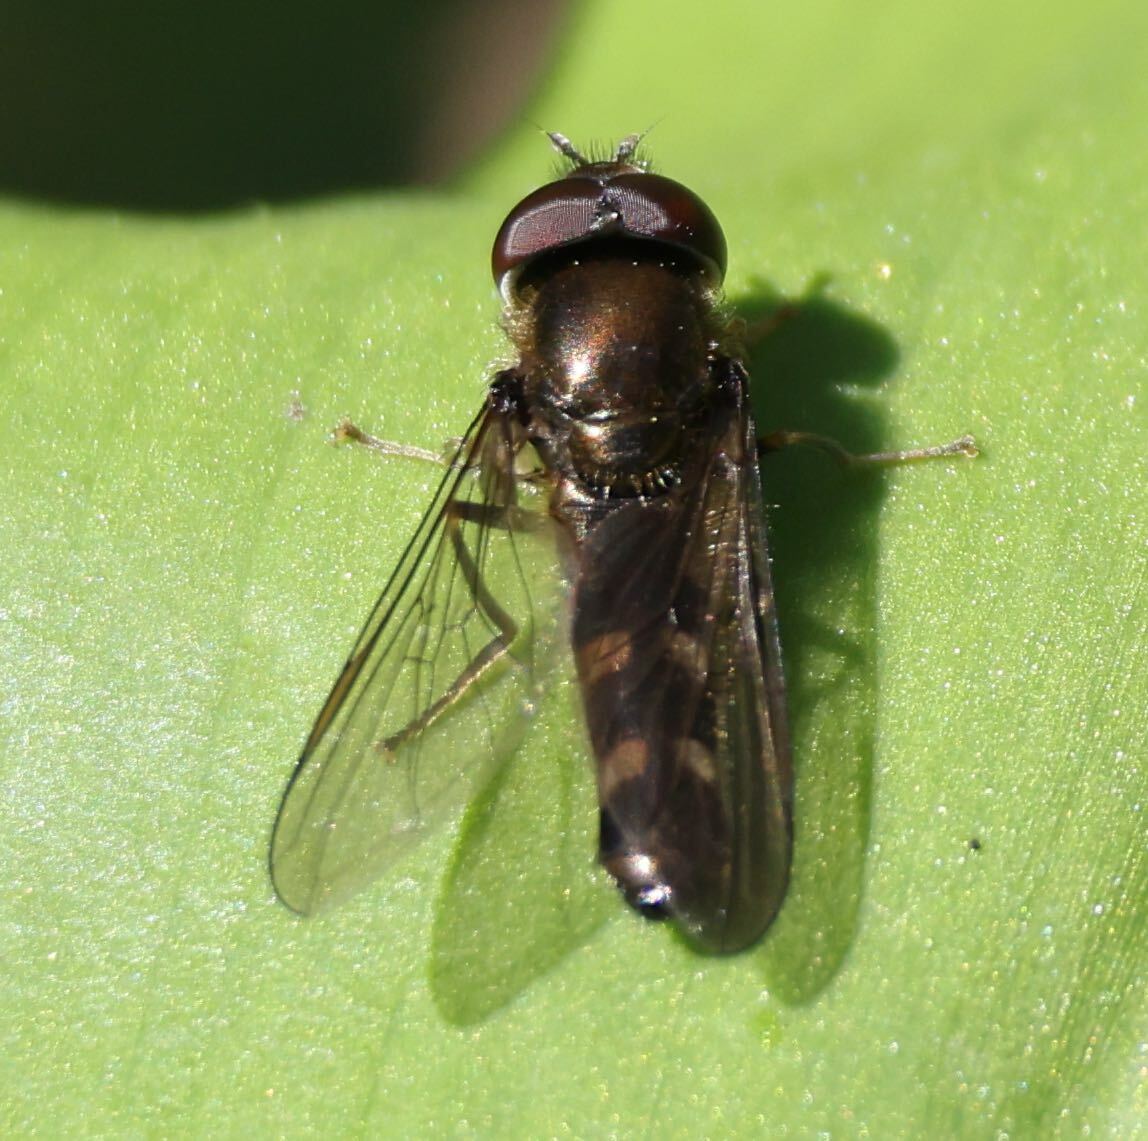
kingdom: Animalia
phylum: Arthropoda
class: Insecta
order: Diptera
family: Syrphidae
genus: Platycheirus
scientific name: Platycheirus albimanus
